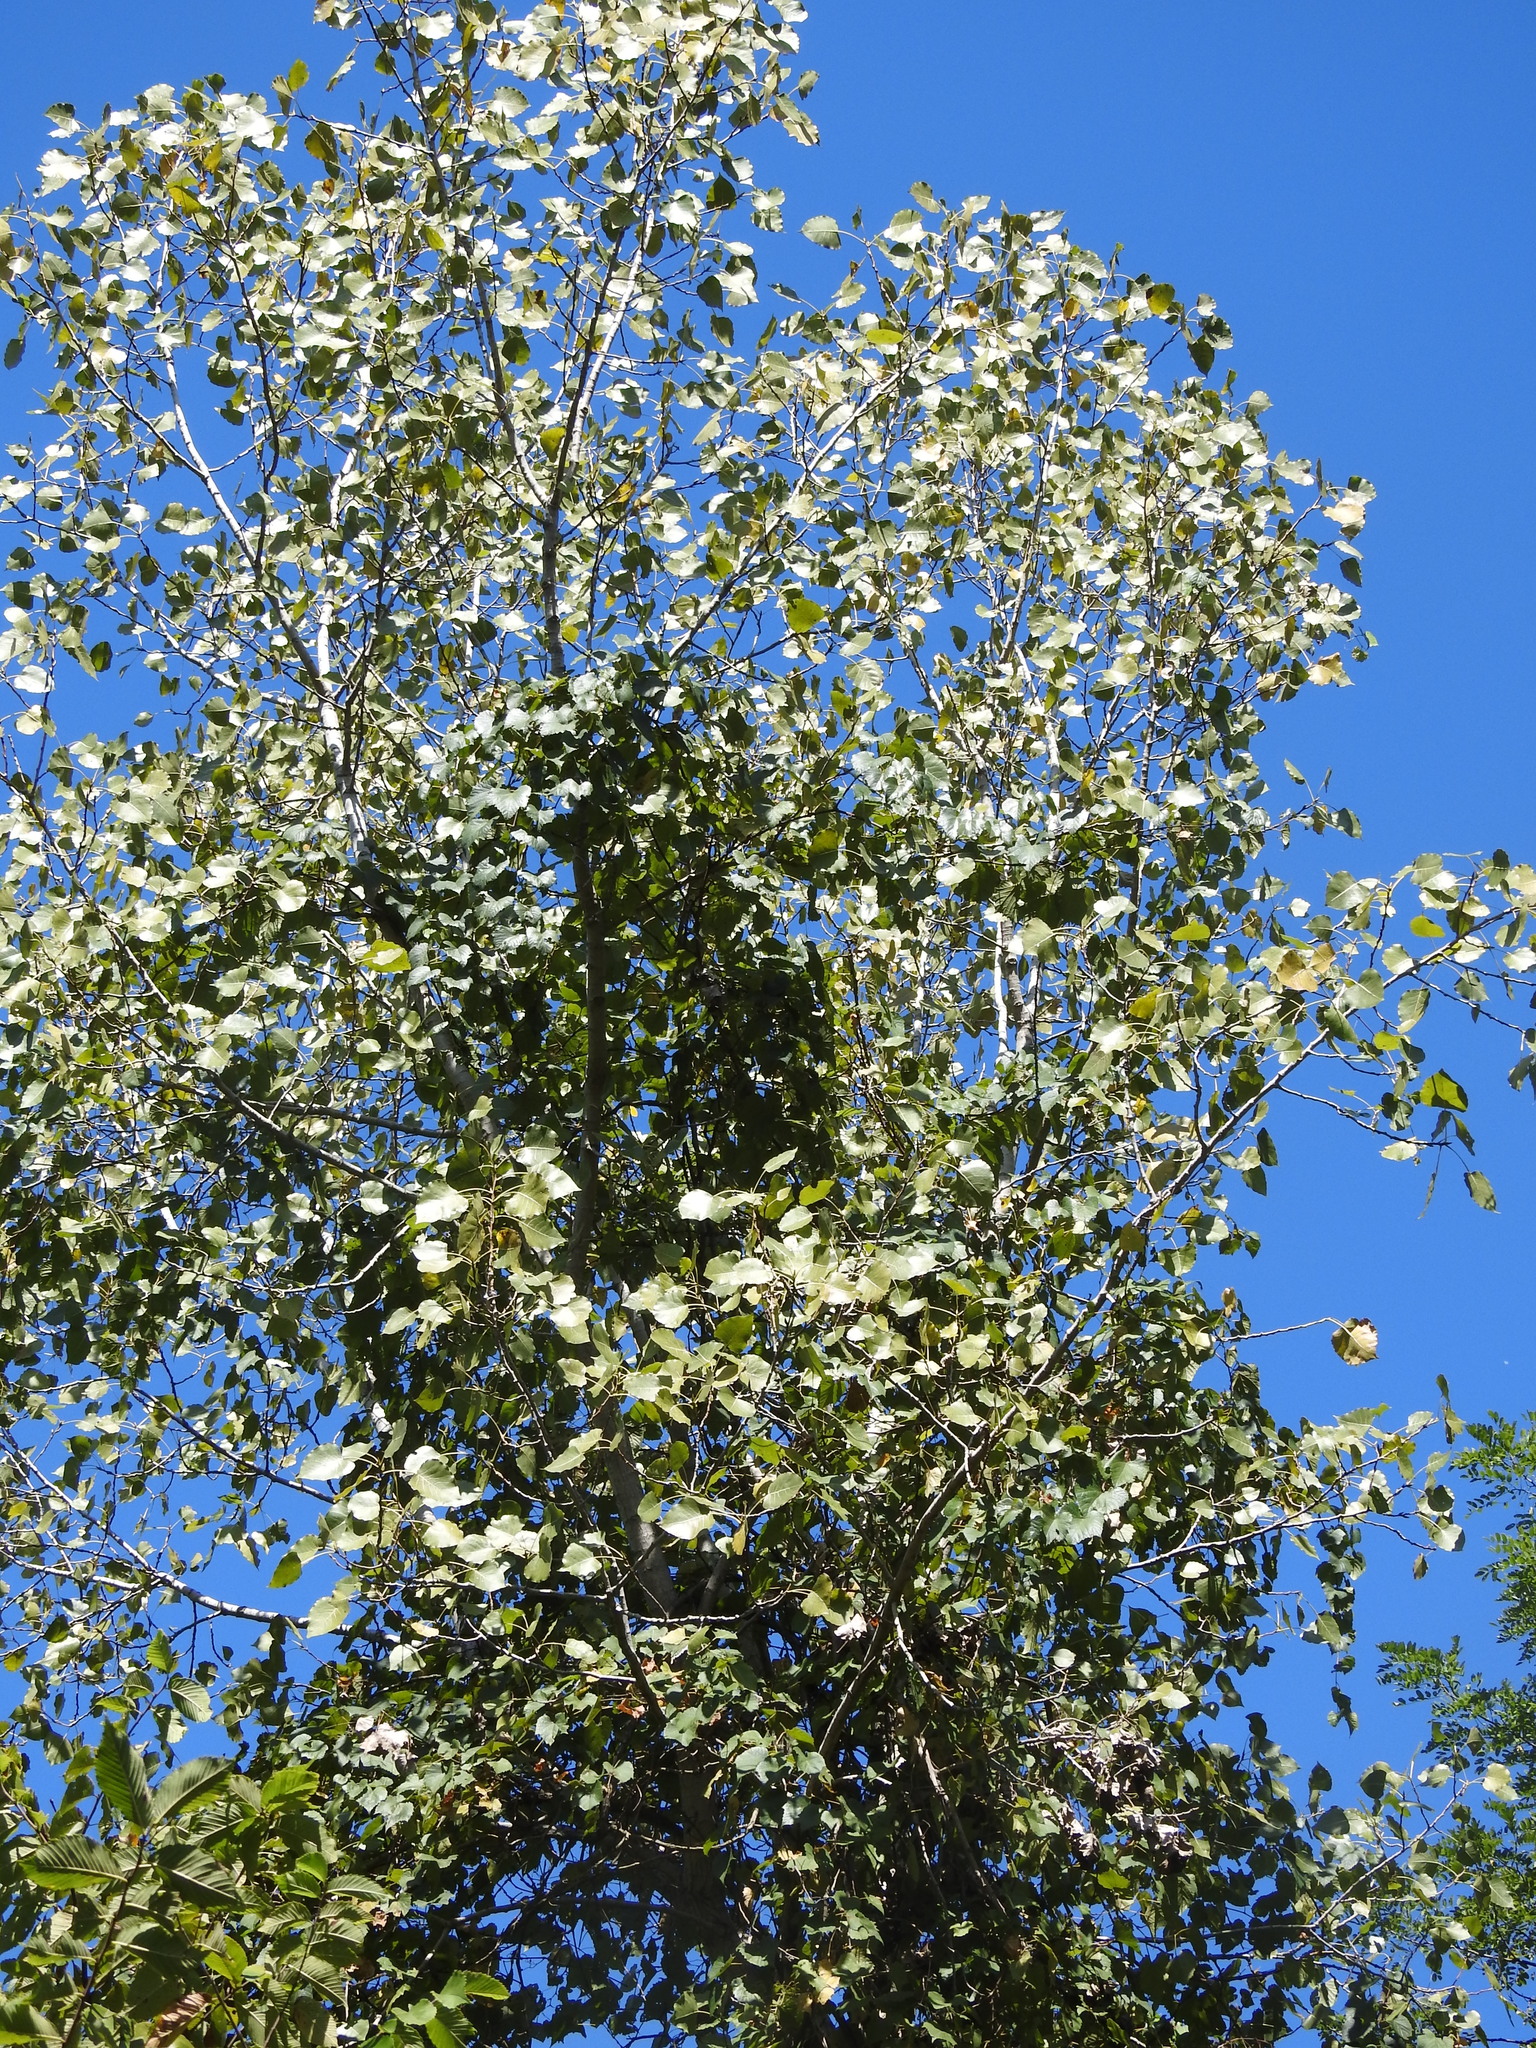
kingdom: Plantae
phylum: Tracheophyta
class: Magnoliopsida
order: Malpighiales
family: Salicaceae
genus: Populus
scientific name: Populus deltoides
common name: Eastern cottonwood
